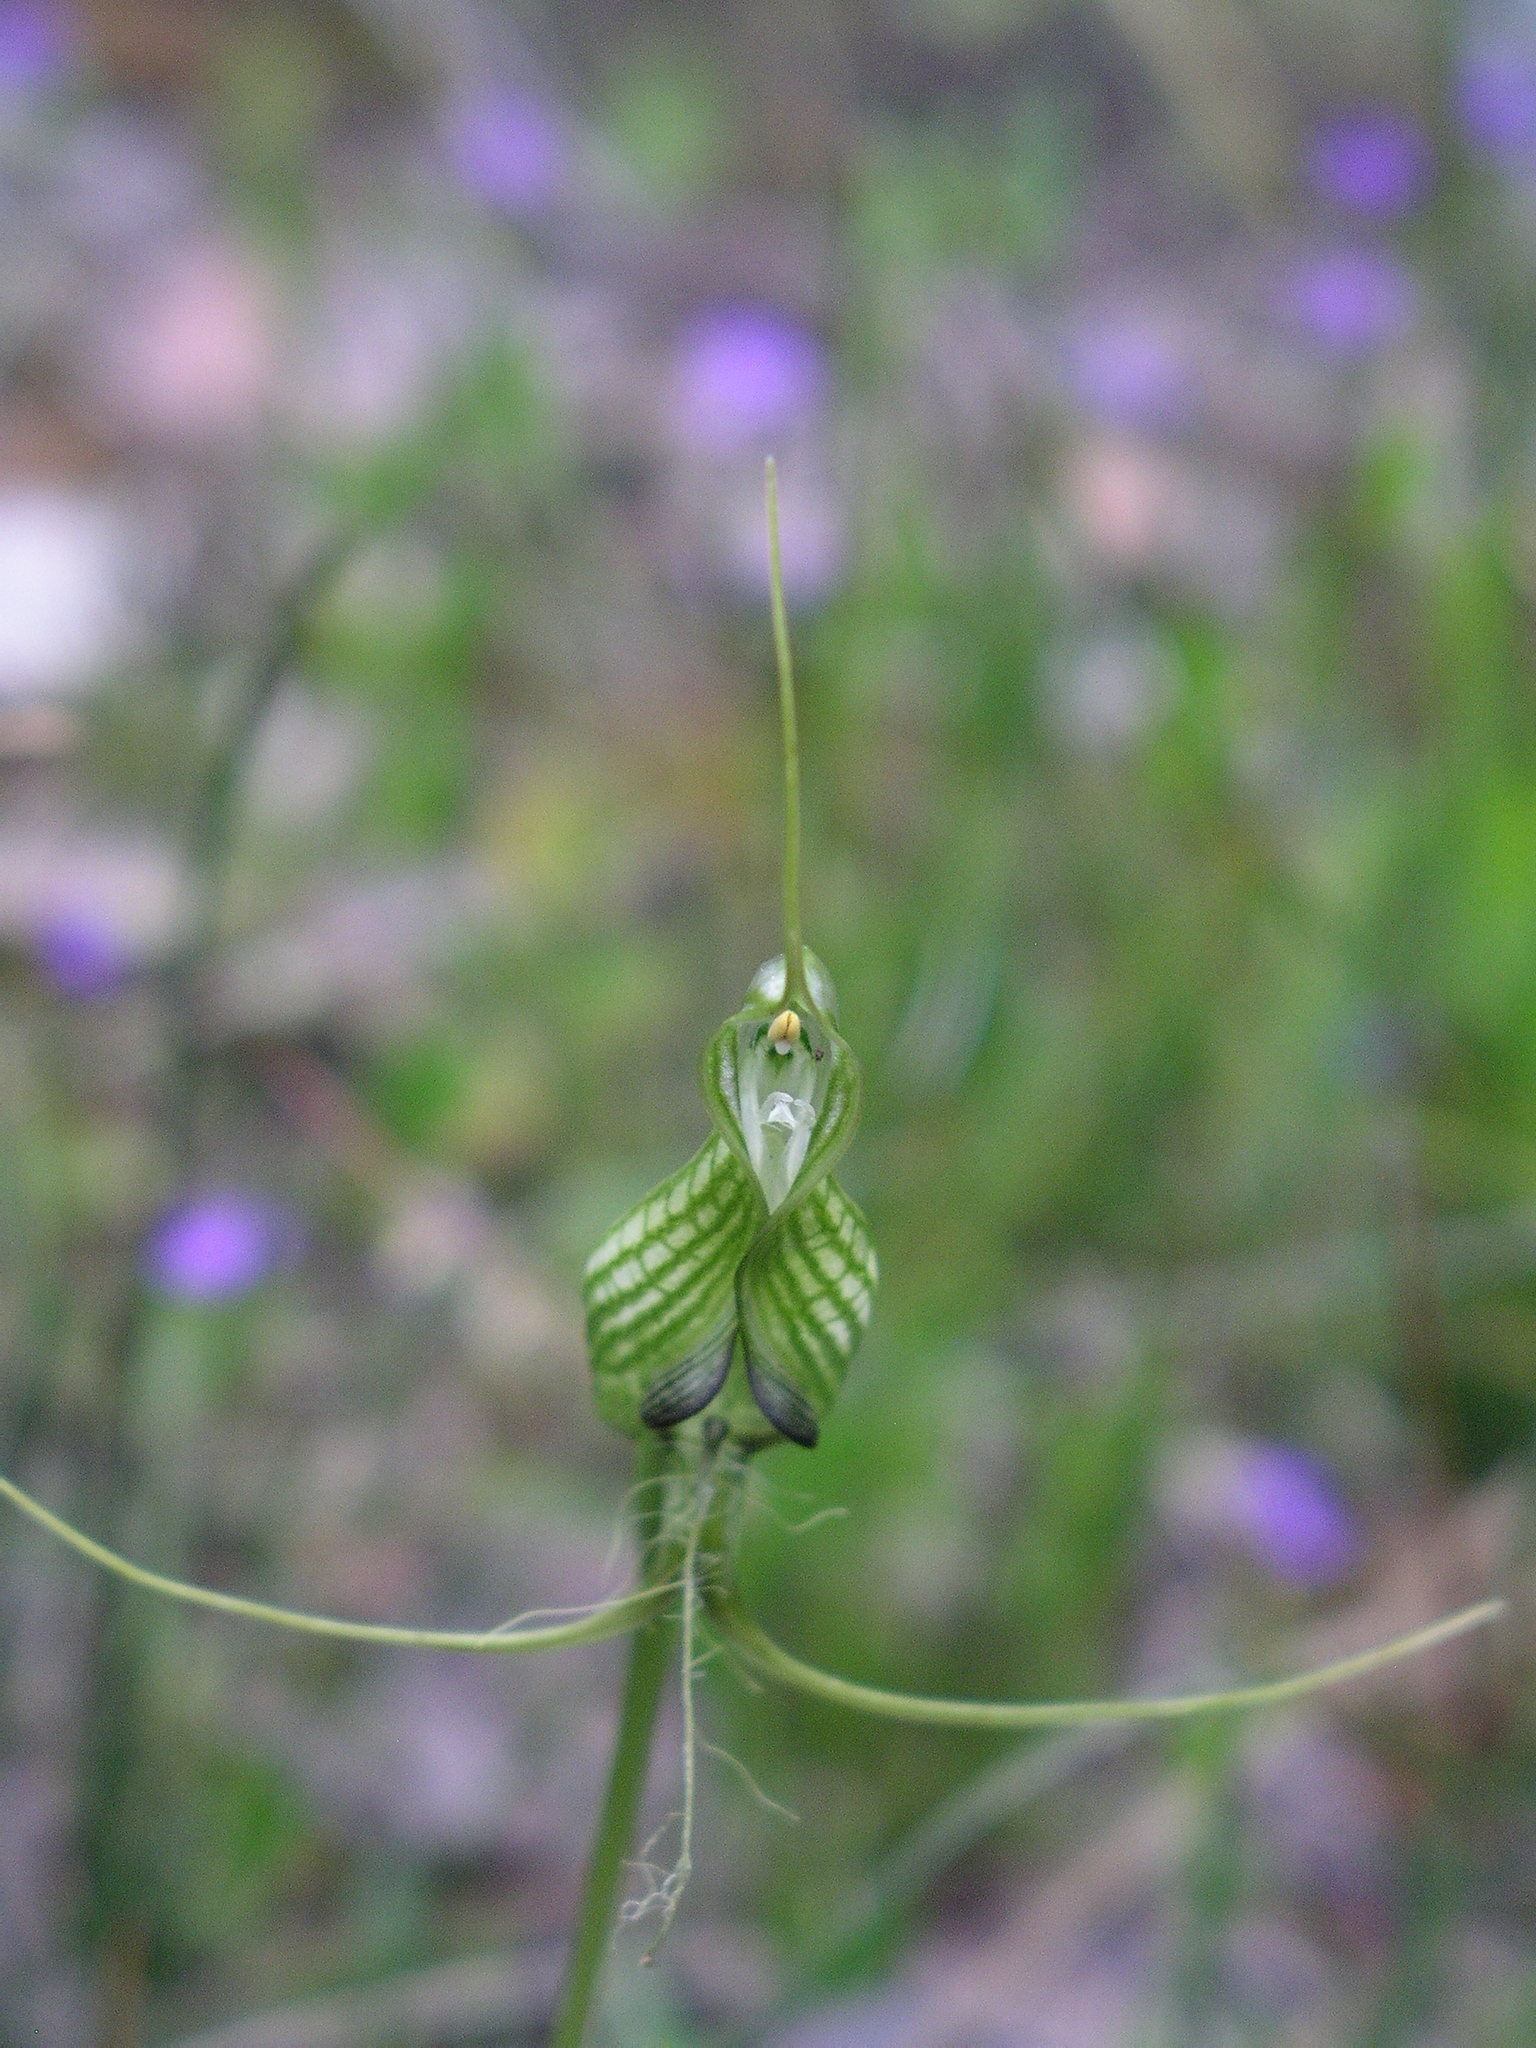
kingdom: Plantae
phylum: Tracheophyta
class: Liliopsida
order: Asparagales
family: Orchidaceae
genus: Pterostylis
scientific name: Pterostylis longicornis
